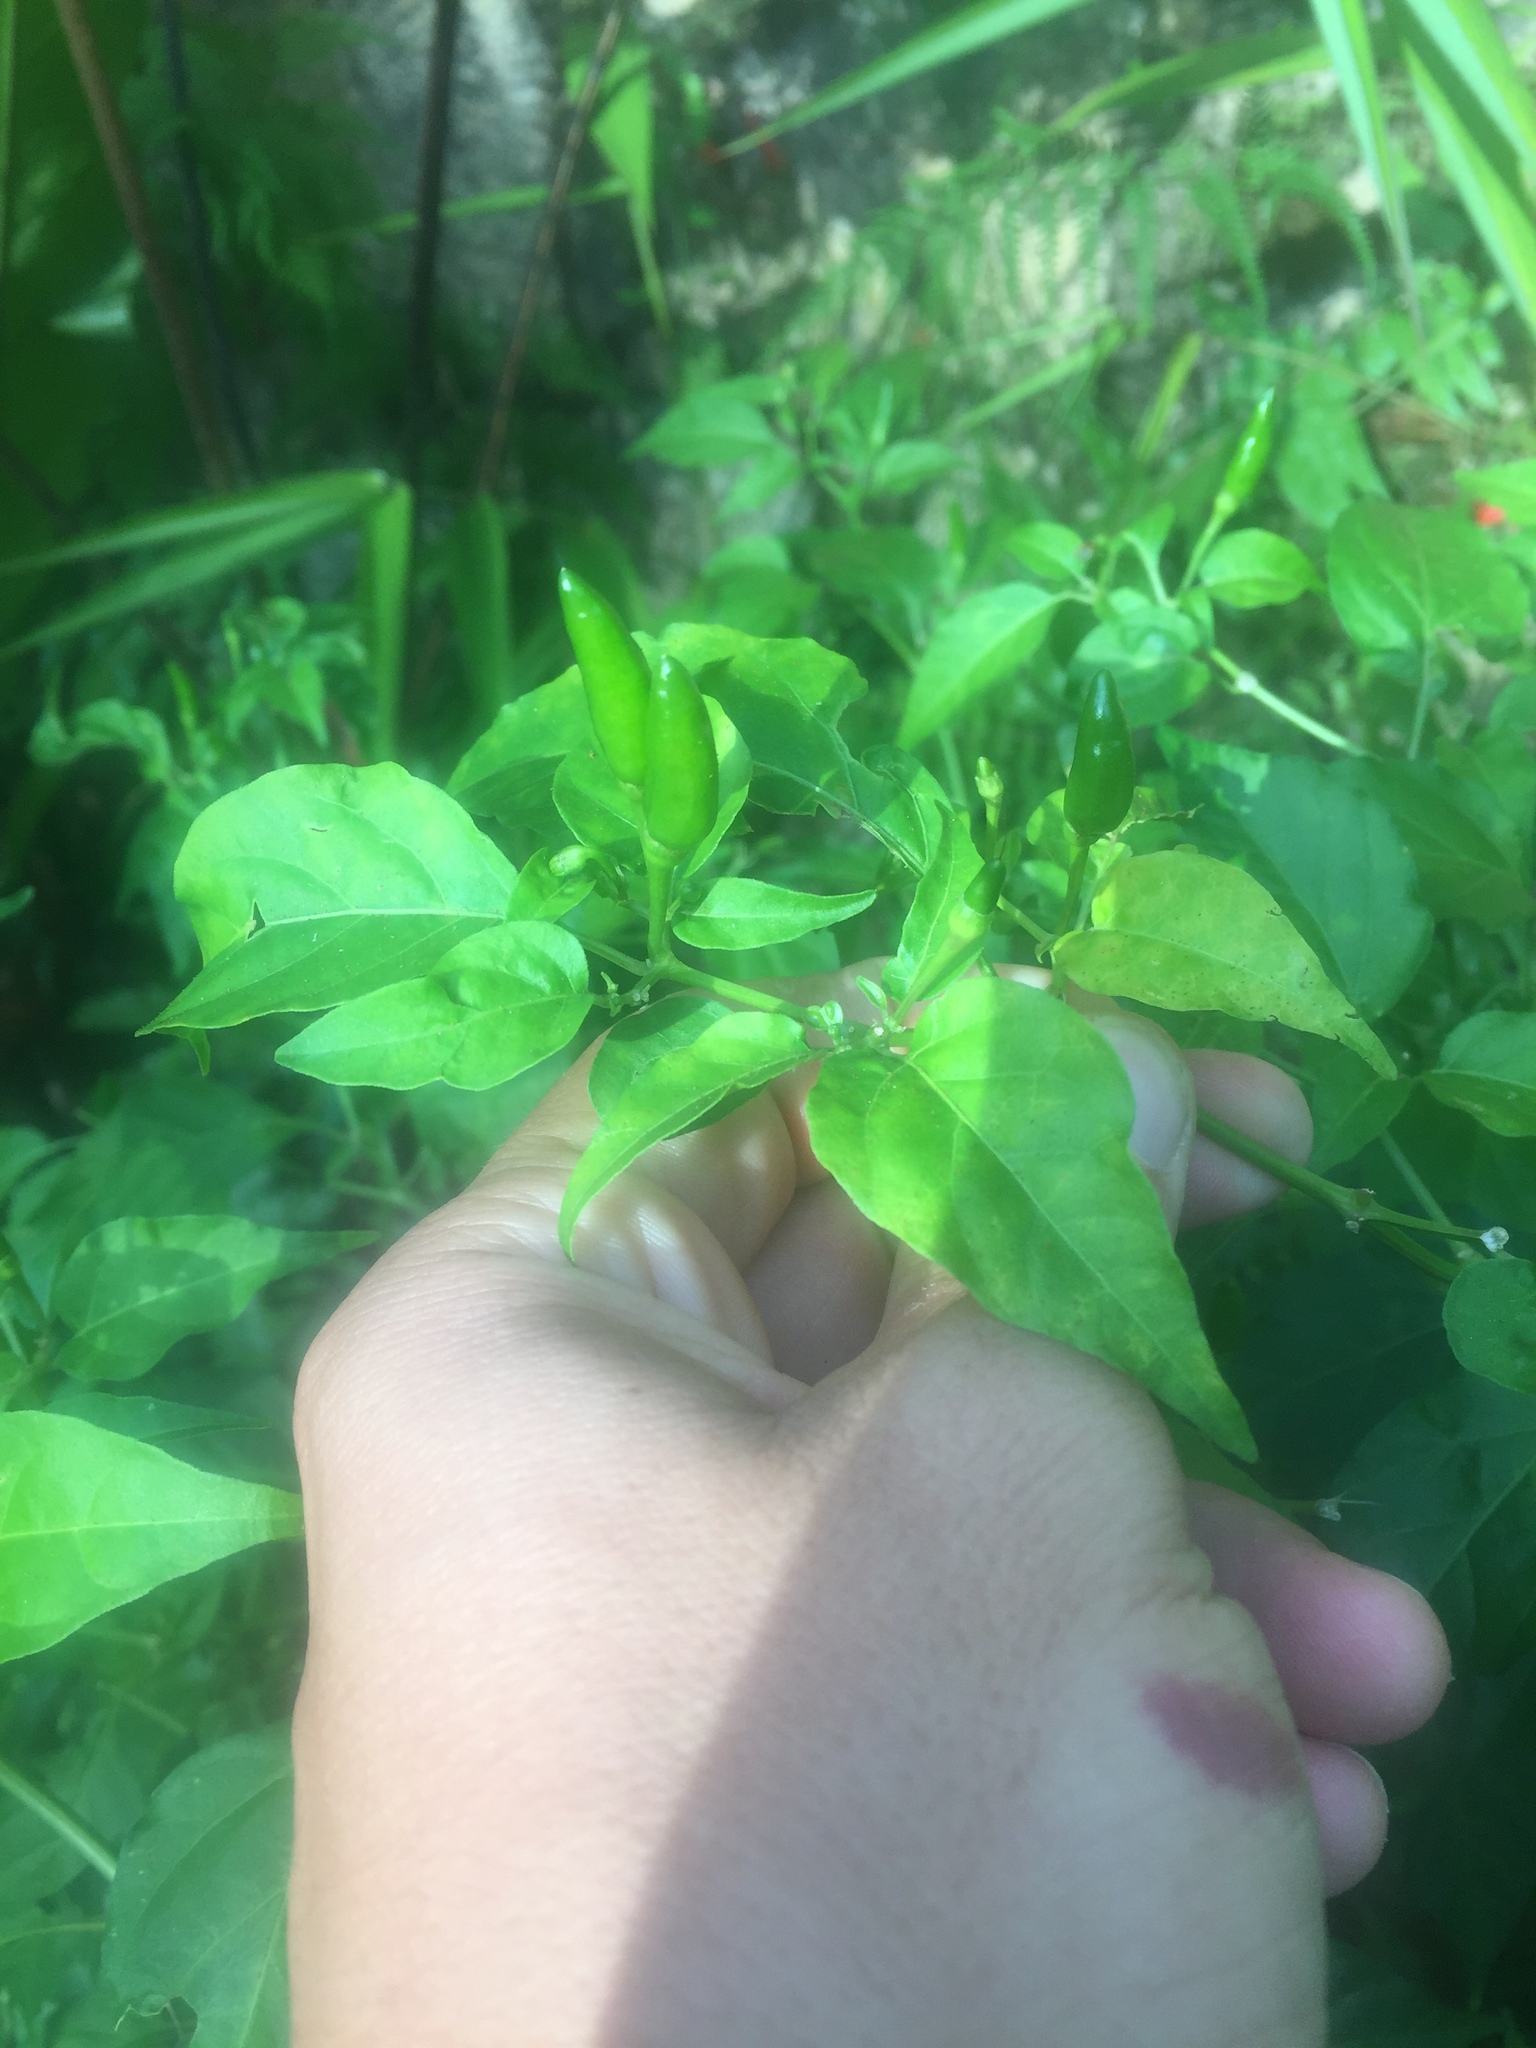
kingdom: Plantae
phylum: Tracheophyta
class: Magnoliopsida
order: Solanales
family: Solanaceae
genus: Capsicum
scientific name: Capsicum frutescens
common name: Bird pepper
